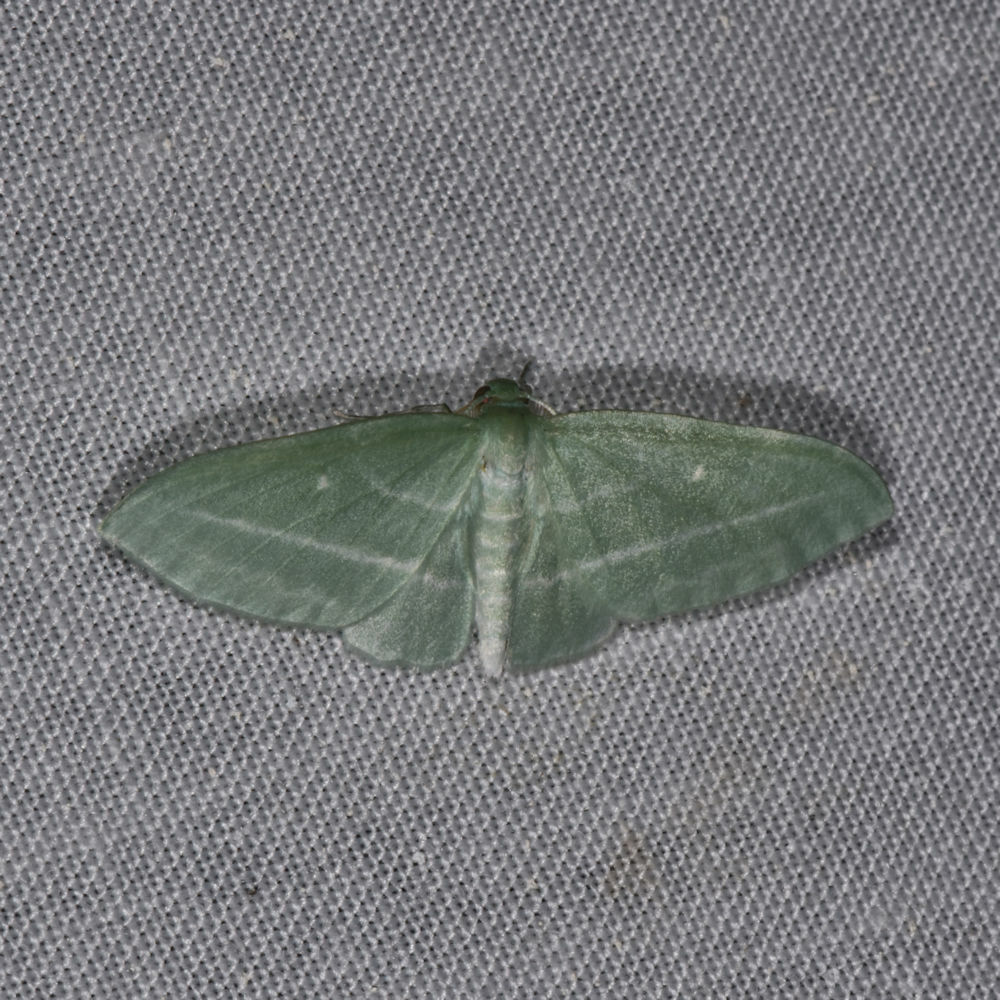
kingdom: Animalia
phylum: Arthropoda
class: Insecta
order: Lepidoptera
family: Geometridae
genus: Dyspteris
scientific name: Dyspteris abortivaria
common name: Bad-wing
